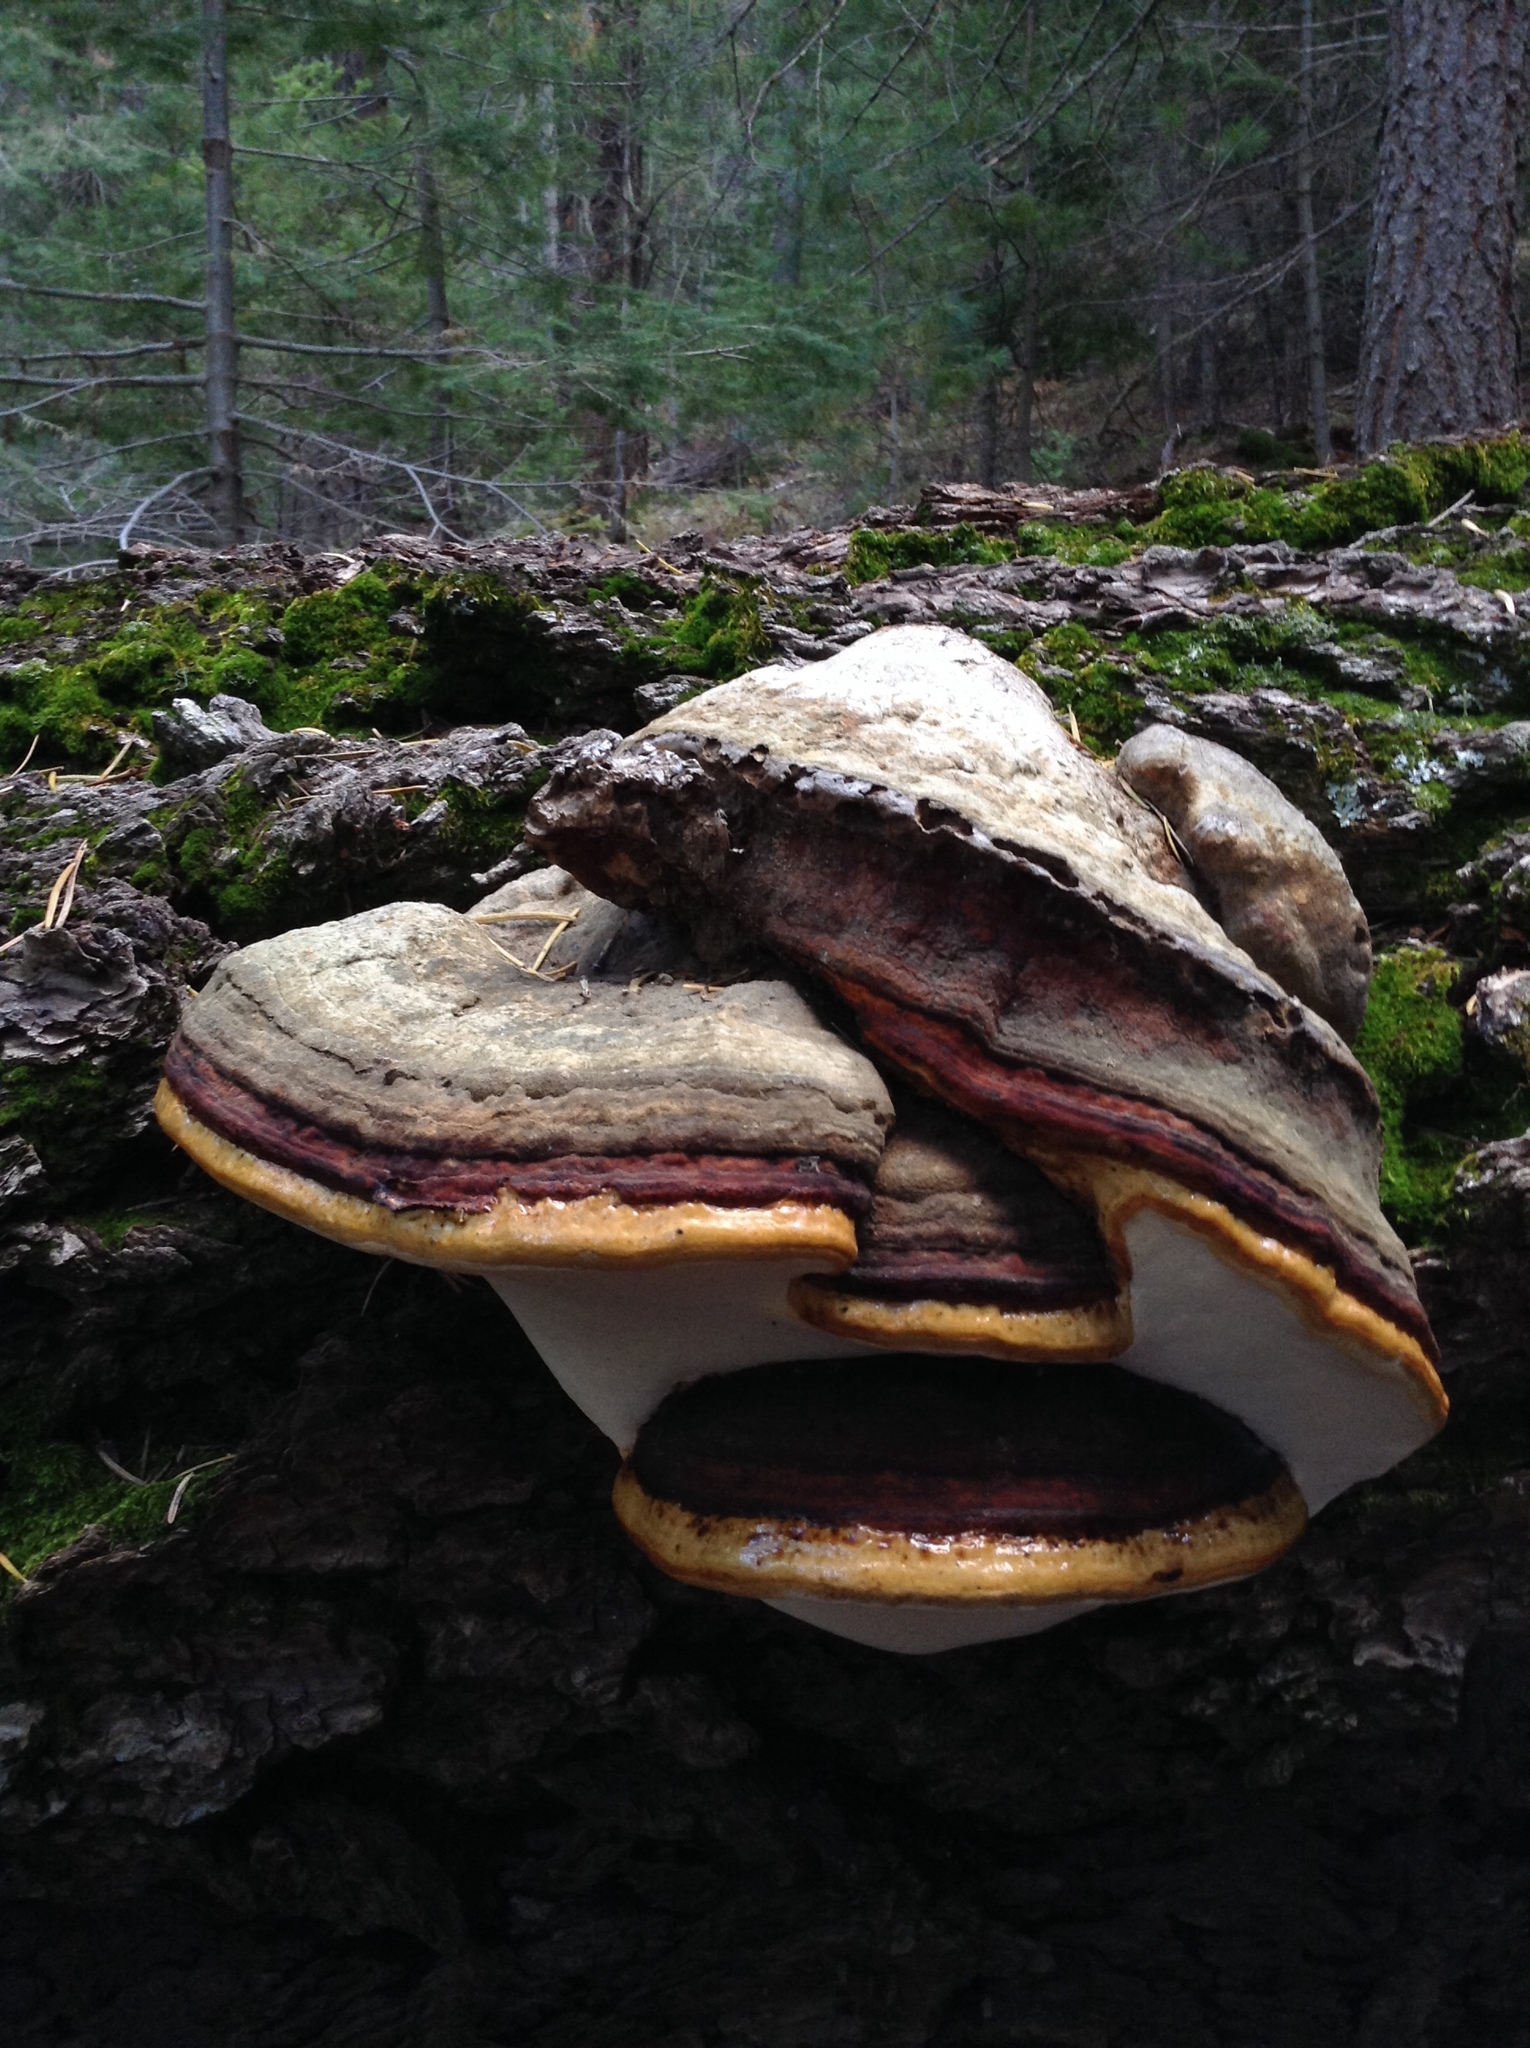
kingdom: Fungi
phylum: Basidiomycota
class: Agaricomycetes
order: Polyporales
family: Fomitopsidaceae
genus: Fomitopsis
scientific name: Fomitopsis schrenkii
